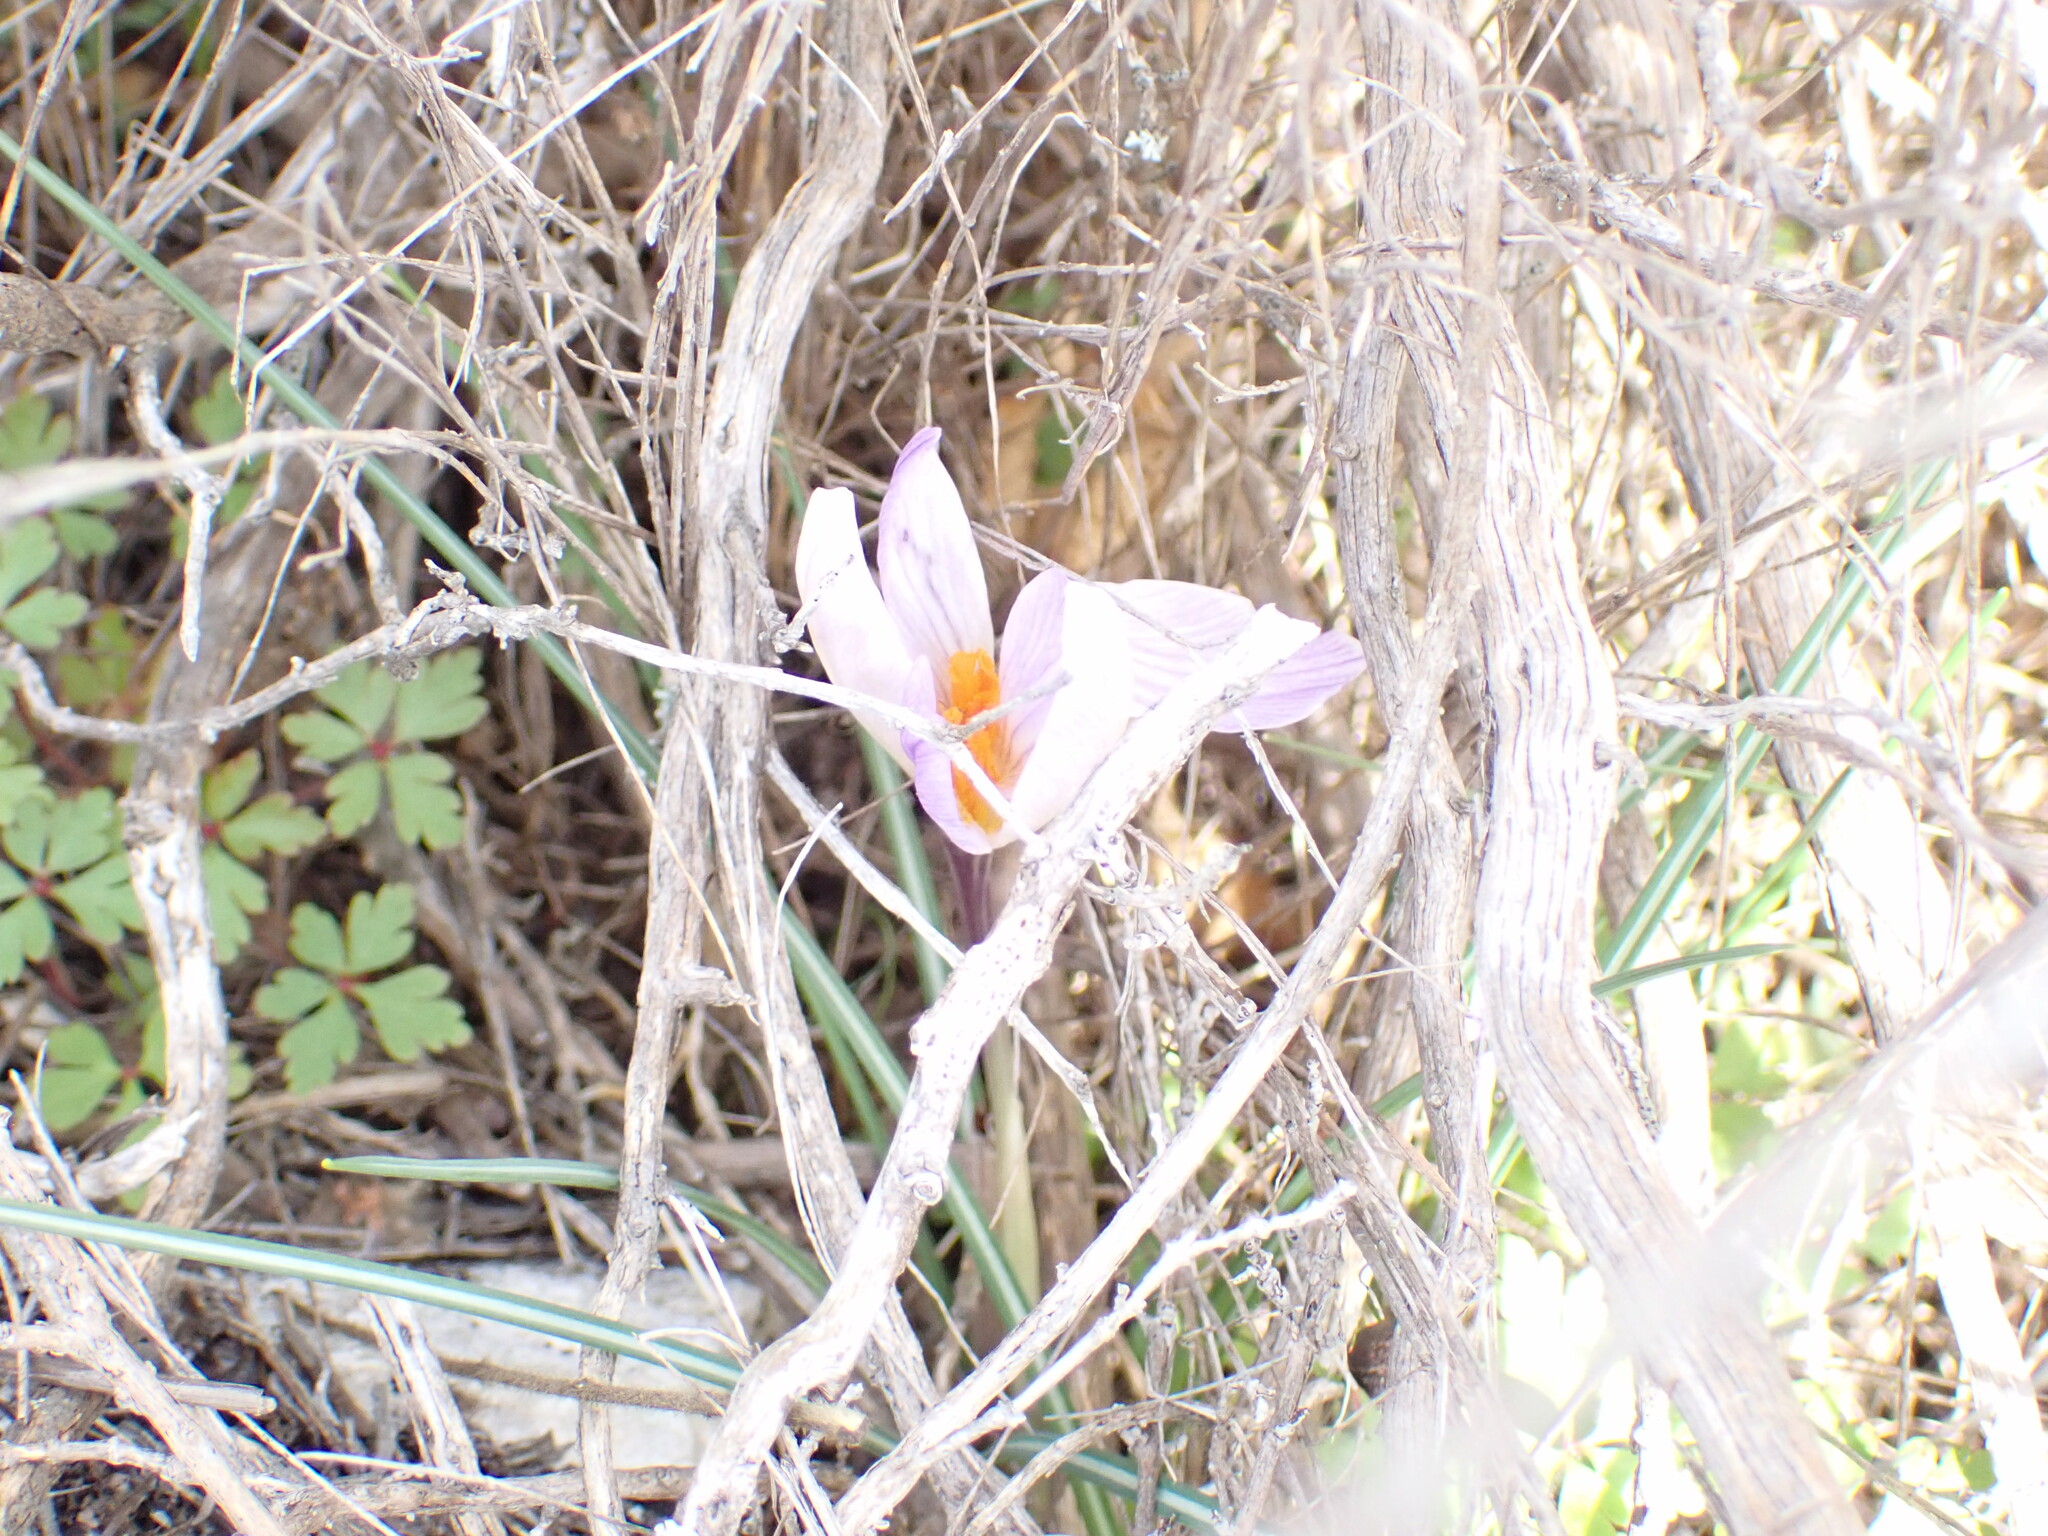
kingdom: Plantae
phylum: Tracheophyta
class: Magnoliopsida
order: Geraniales
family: Geraniaceae
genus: Geranium
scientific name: Geranium purpureum
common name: Little-robin
